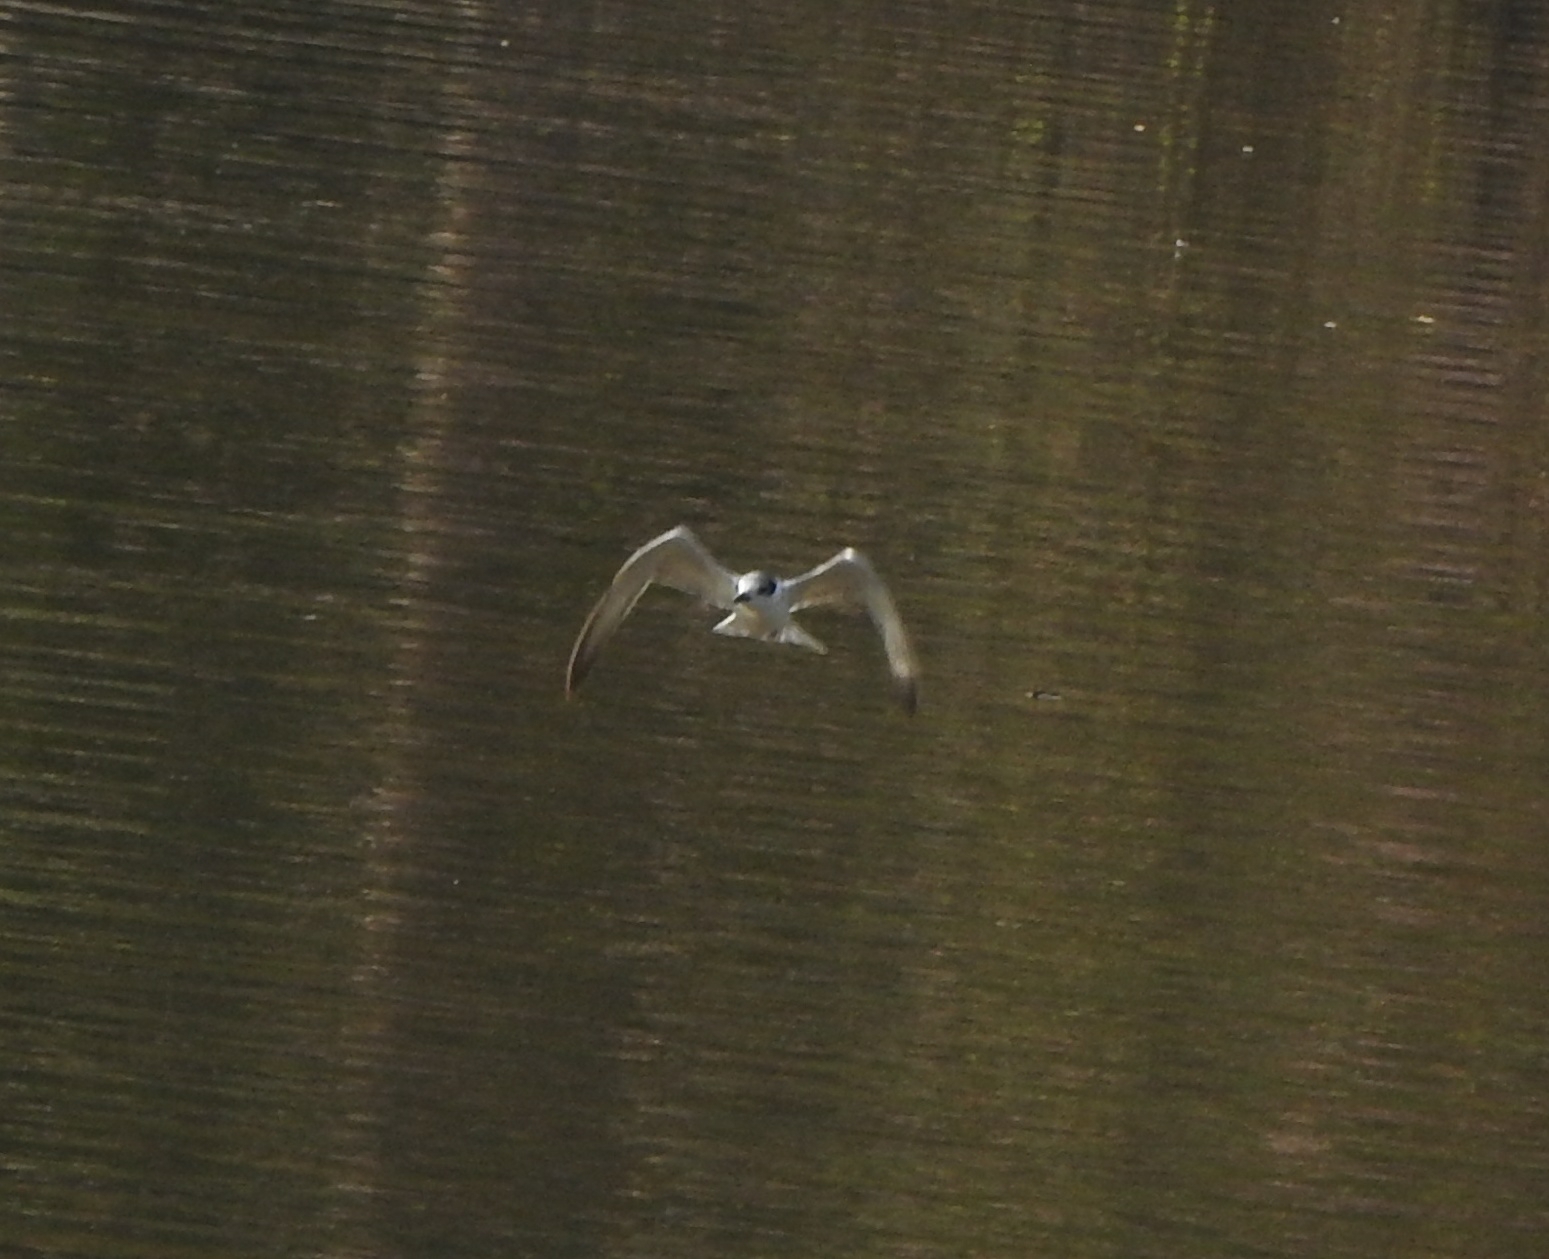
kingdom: Animalia
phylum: Chordata
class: Aves
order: Charadriiformes
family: Laridae
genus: Chlidonias
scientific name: Chlidonias hybrida
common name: Whiskered tern
